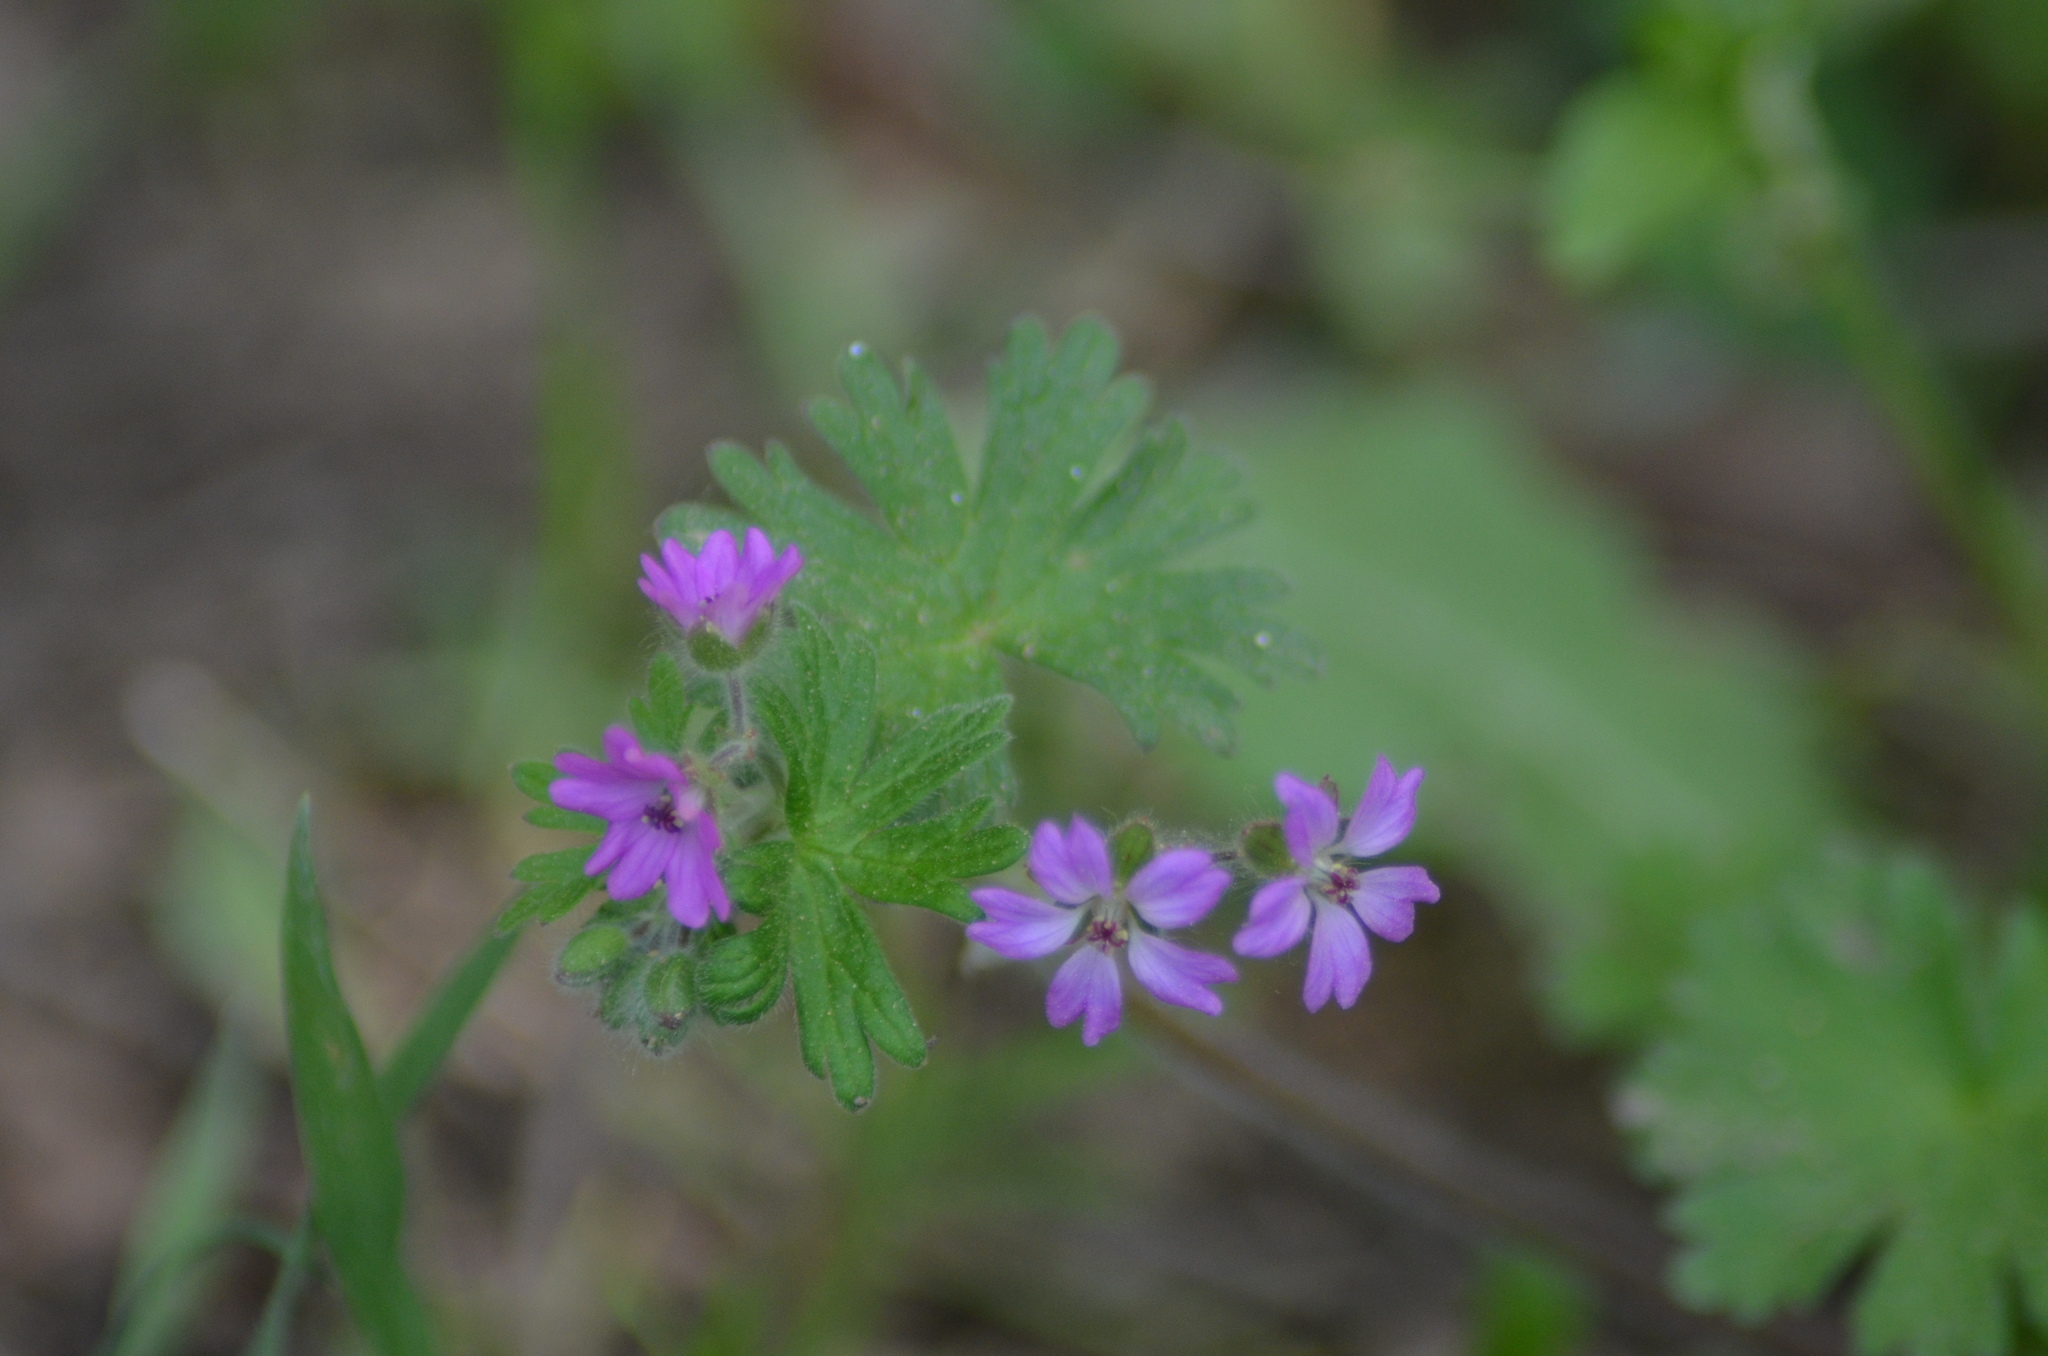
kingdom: Plantae
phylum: Tracheophyta
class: Magnoliopsida
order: Geraniales
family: Geraniaceae
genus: Geranium
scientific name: Geranium molle
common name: Dove's-foot crane's-bill
